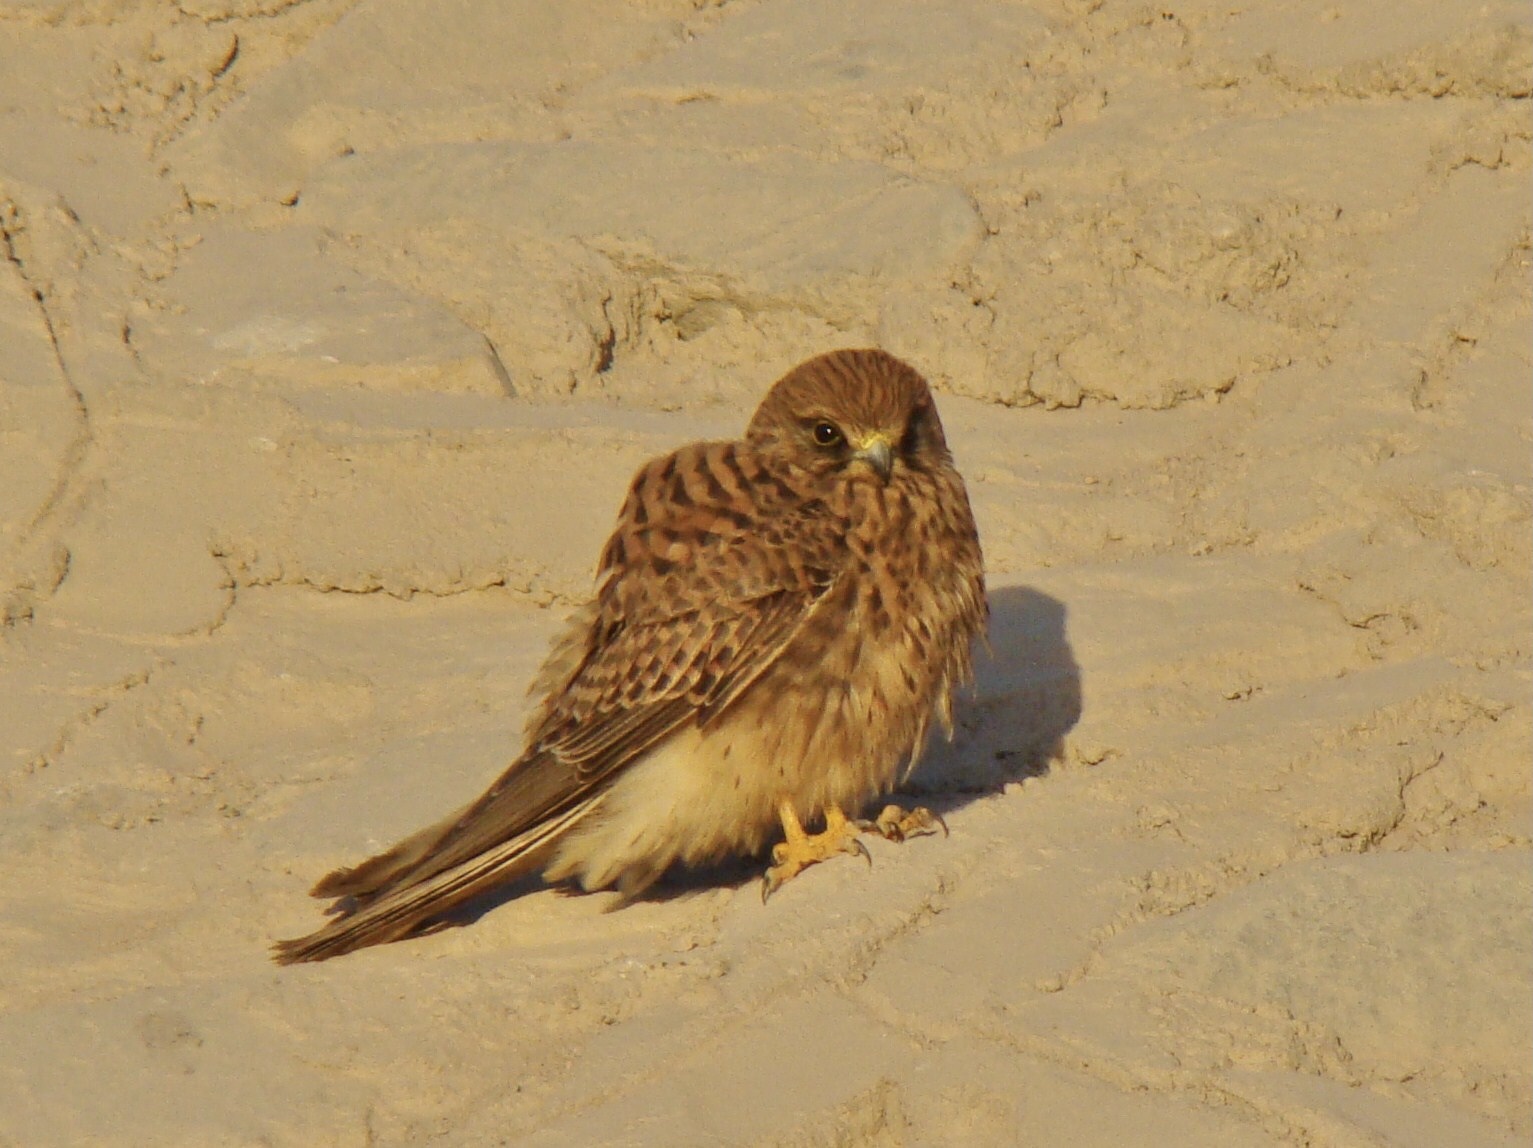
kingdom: Animalia
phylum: Chordata
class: Aves
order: Falconiformes
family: Falconidae
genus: Falco
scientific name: Falco tinnunculus
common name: Common kestrel
